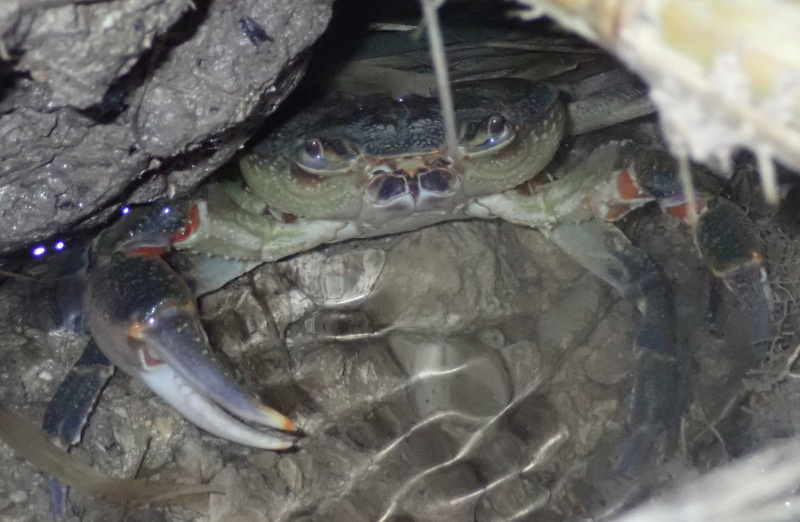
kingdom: Animalia
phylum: Arthropoda
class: Malacostraca
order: Decapoda
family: Potamidae
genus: Potamon
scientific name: Potamon fluviatile
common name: Italian freshwater crab
